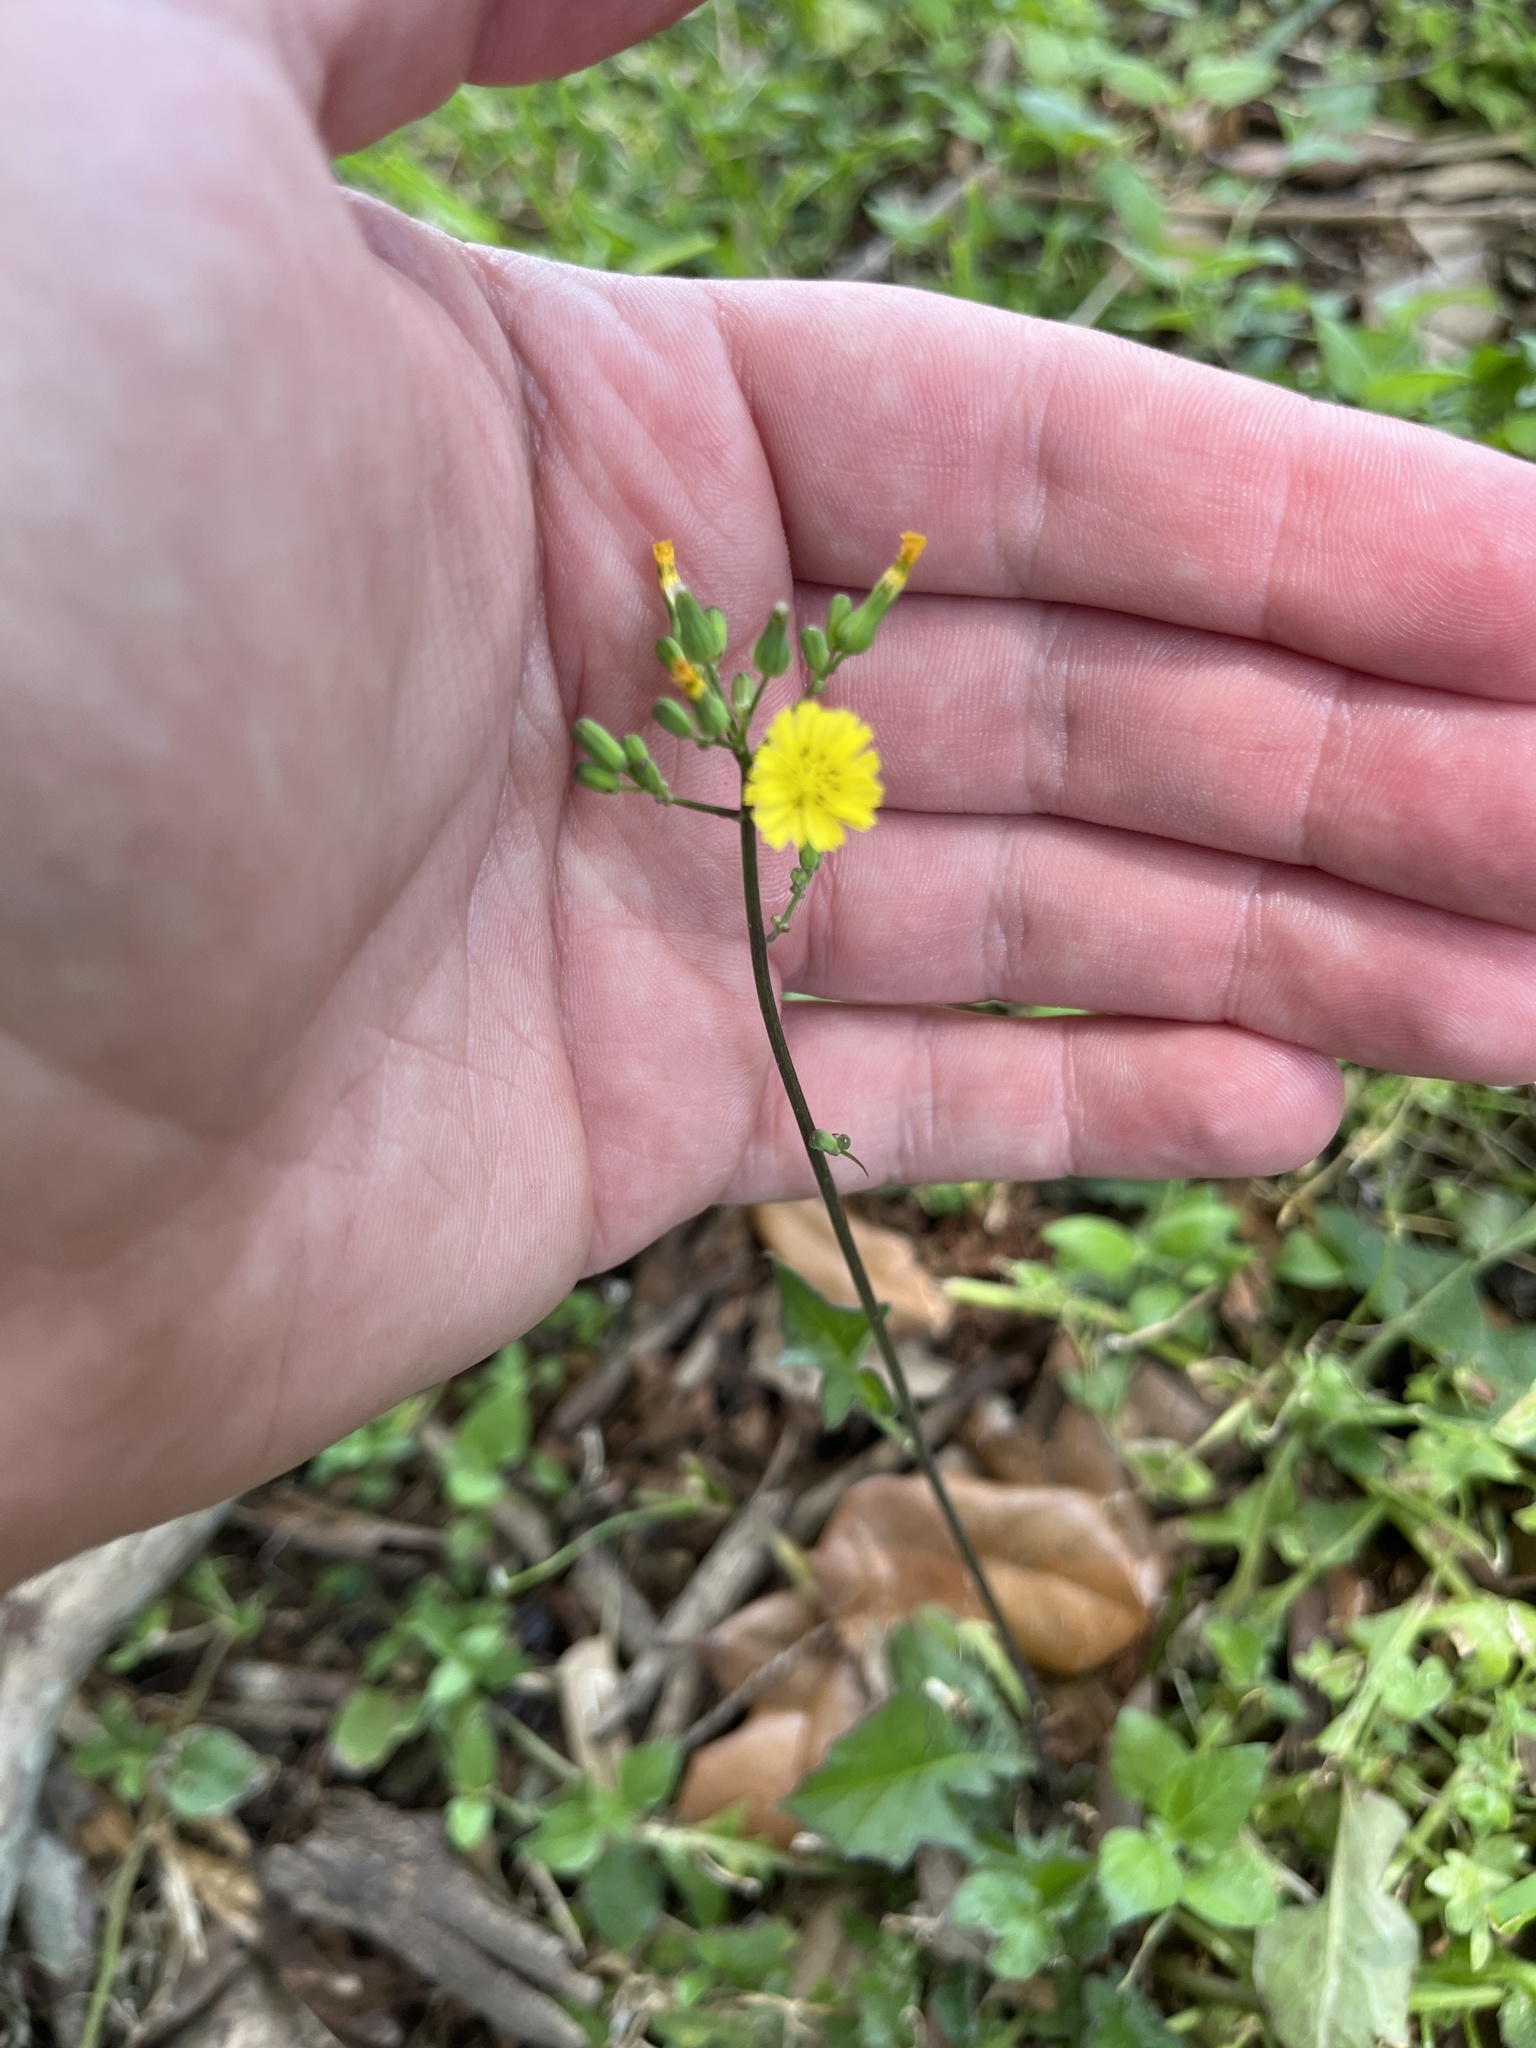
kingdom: Plantae
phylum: Tracheophyta
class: Magnoliopsida
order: Asterales
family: Asteraceae
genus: Youngia
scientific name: Youngia japonica
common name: Oriental false hawksbeard
